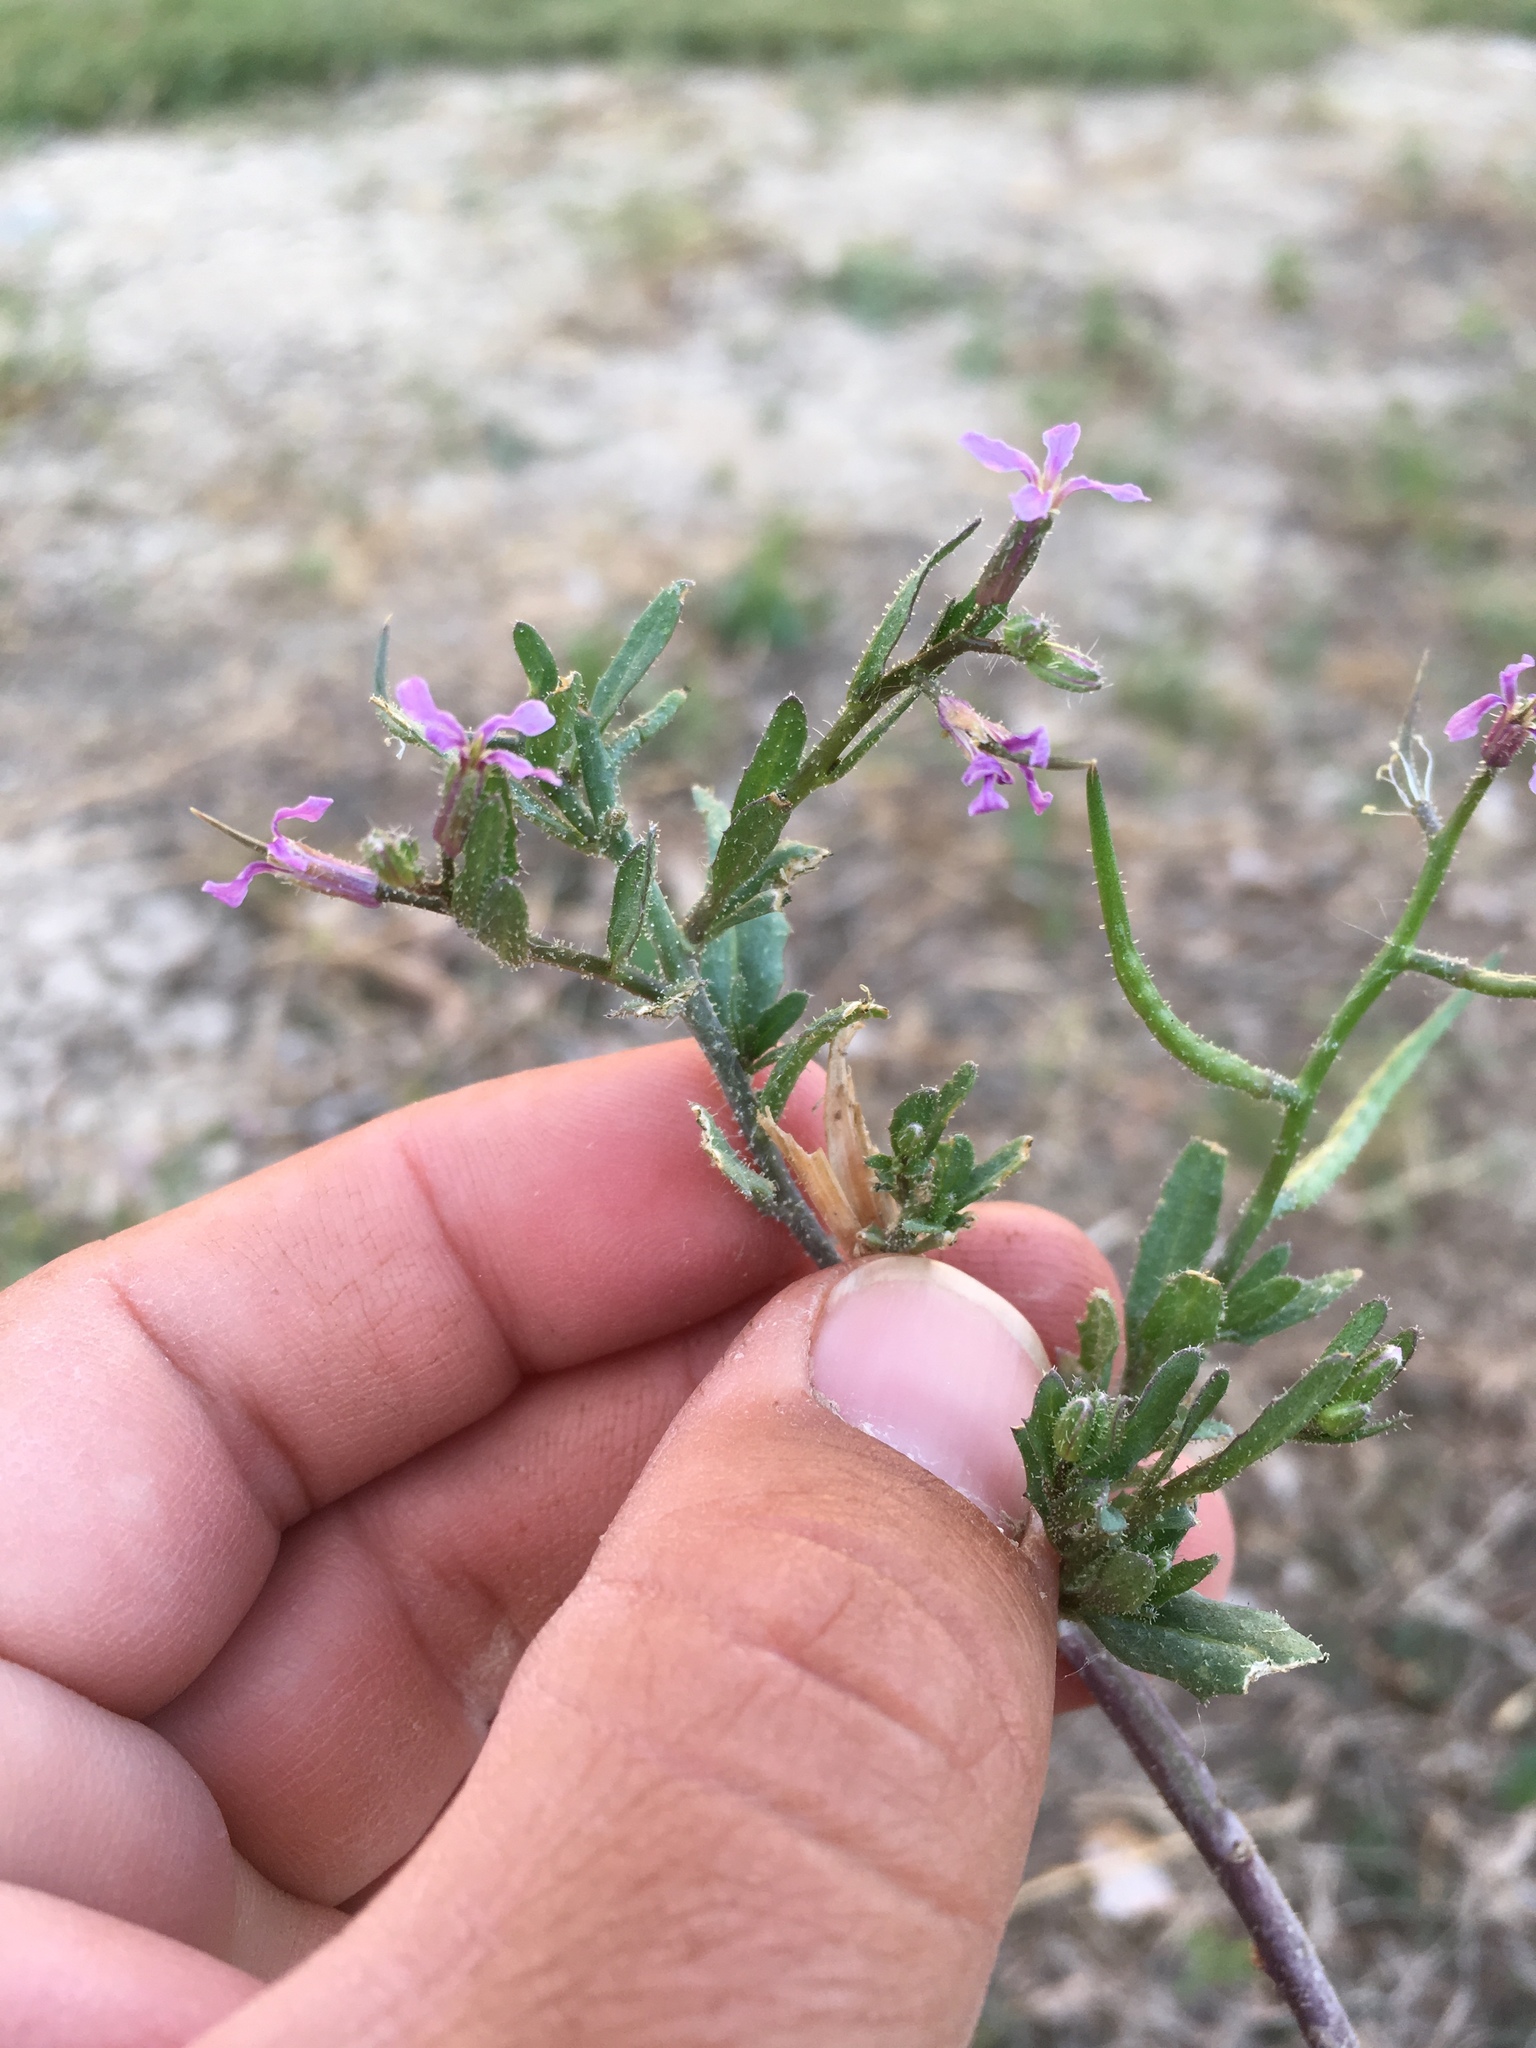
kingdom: Plantae
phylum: Tracheophyta
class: Magnoliopsida
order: Brassicales
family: Brassicaceae
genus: Chorispora
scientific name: Chorispora tenella
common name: Crossflower
